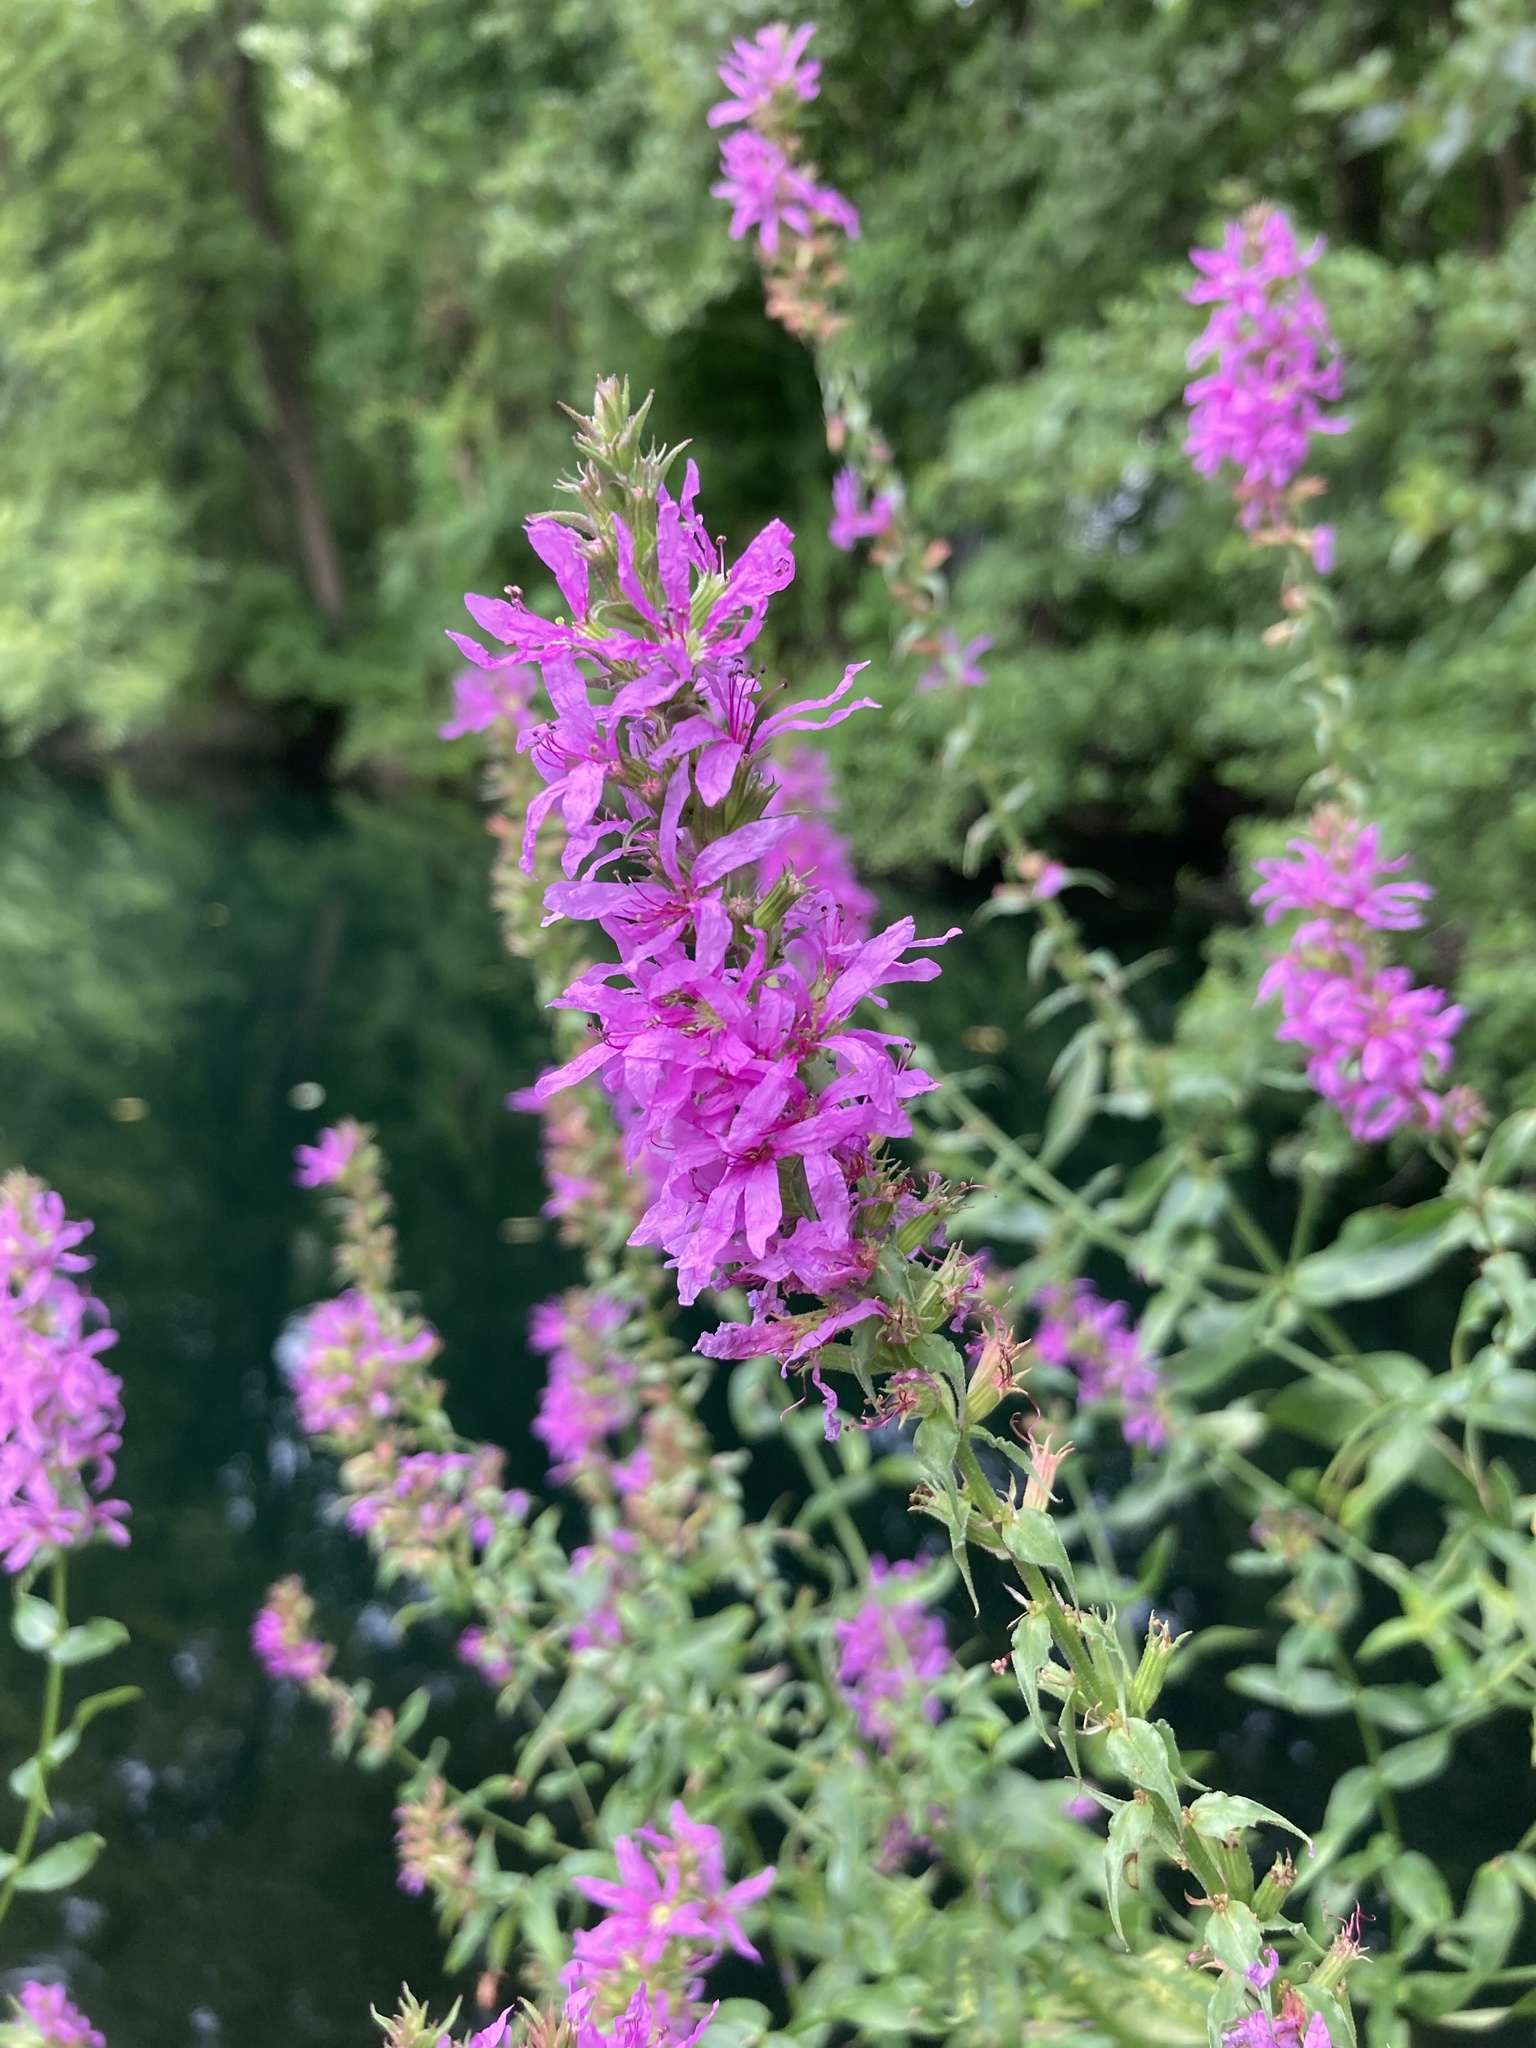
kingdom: Plantae
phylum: Tracheophyta
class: Magnoliopsida
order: Myrtales
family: Lythraceae
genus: Lythrum
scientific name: Lythrum salicaria
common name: Purple loosestrife
